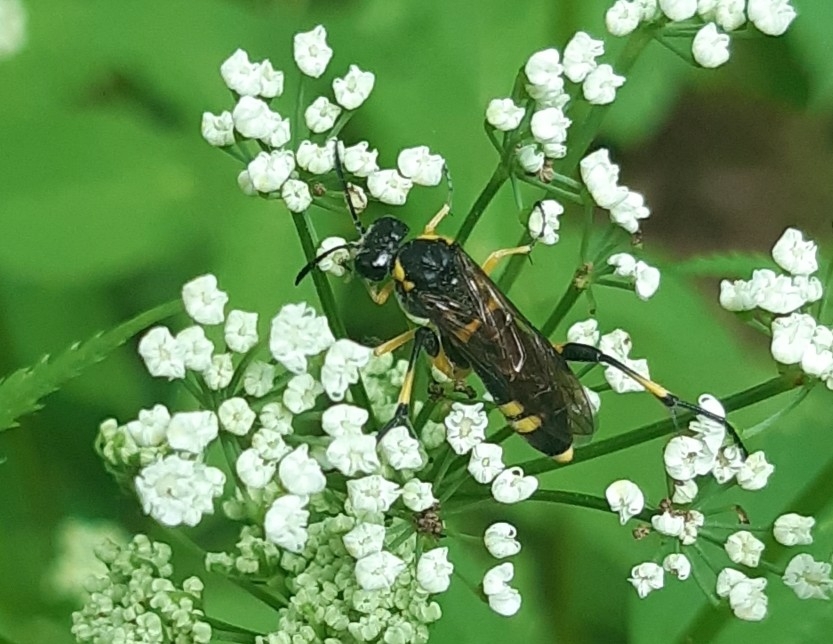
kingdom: Animalia
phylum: Arthropoda
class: Insecta
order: Hymenoptera
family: Tenthredinidae
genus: Macrophya
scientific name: Macrophya montana
